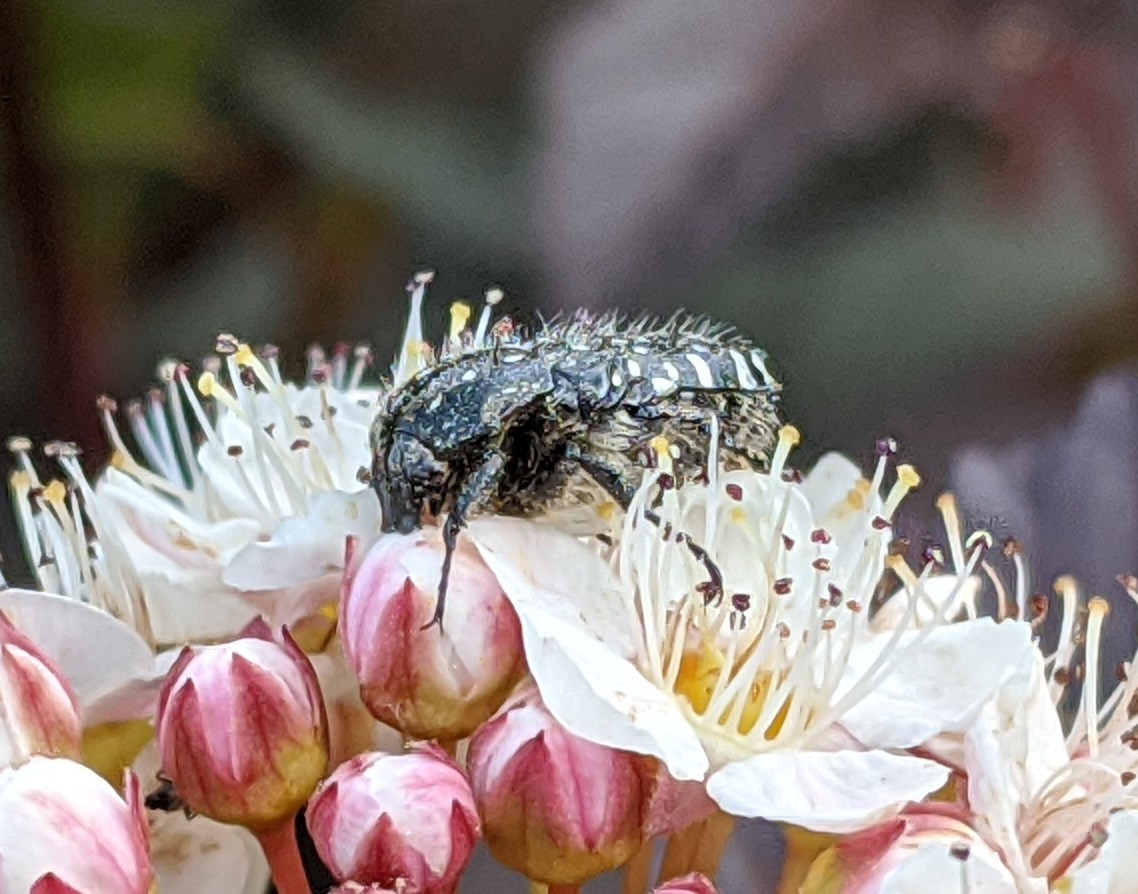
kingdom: Animalia
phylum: Arthropoda
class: Insecta
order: Coleoptera
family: Scarabaeidae
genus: Oxythyrea
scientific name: Oxythyrea funesta
